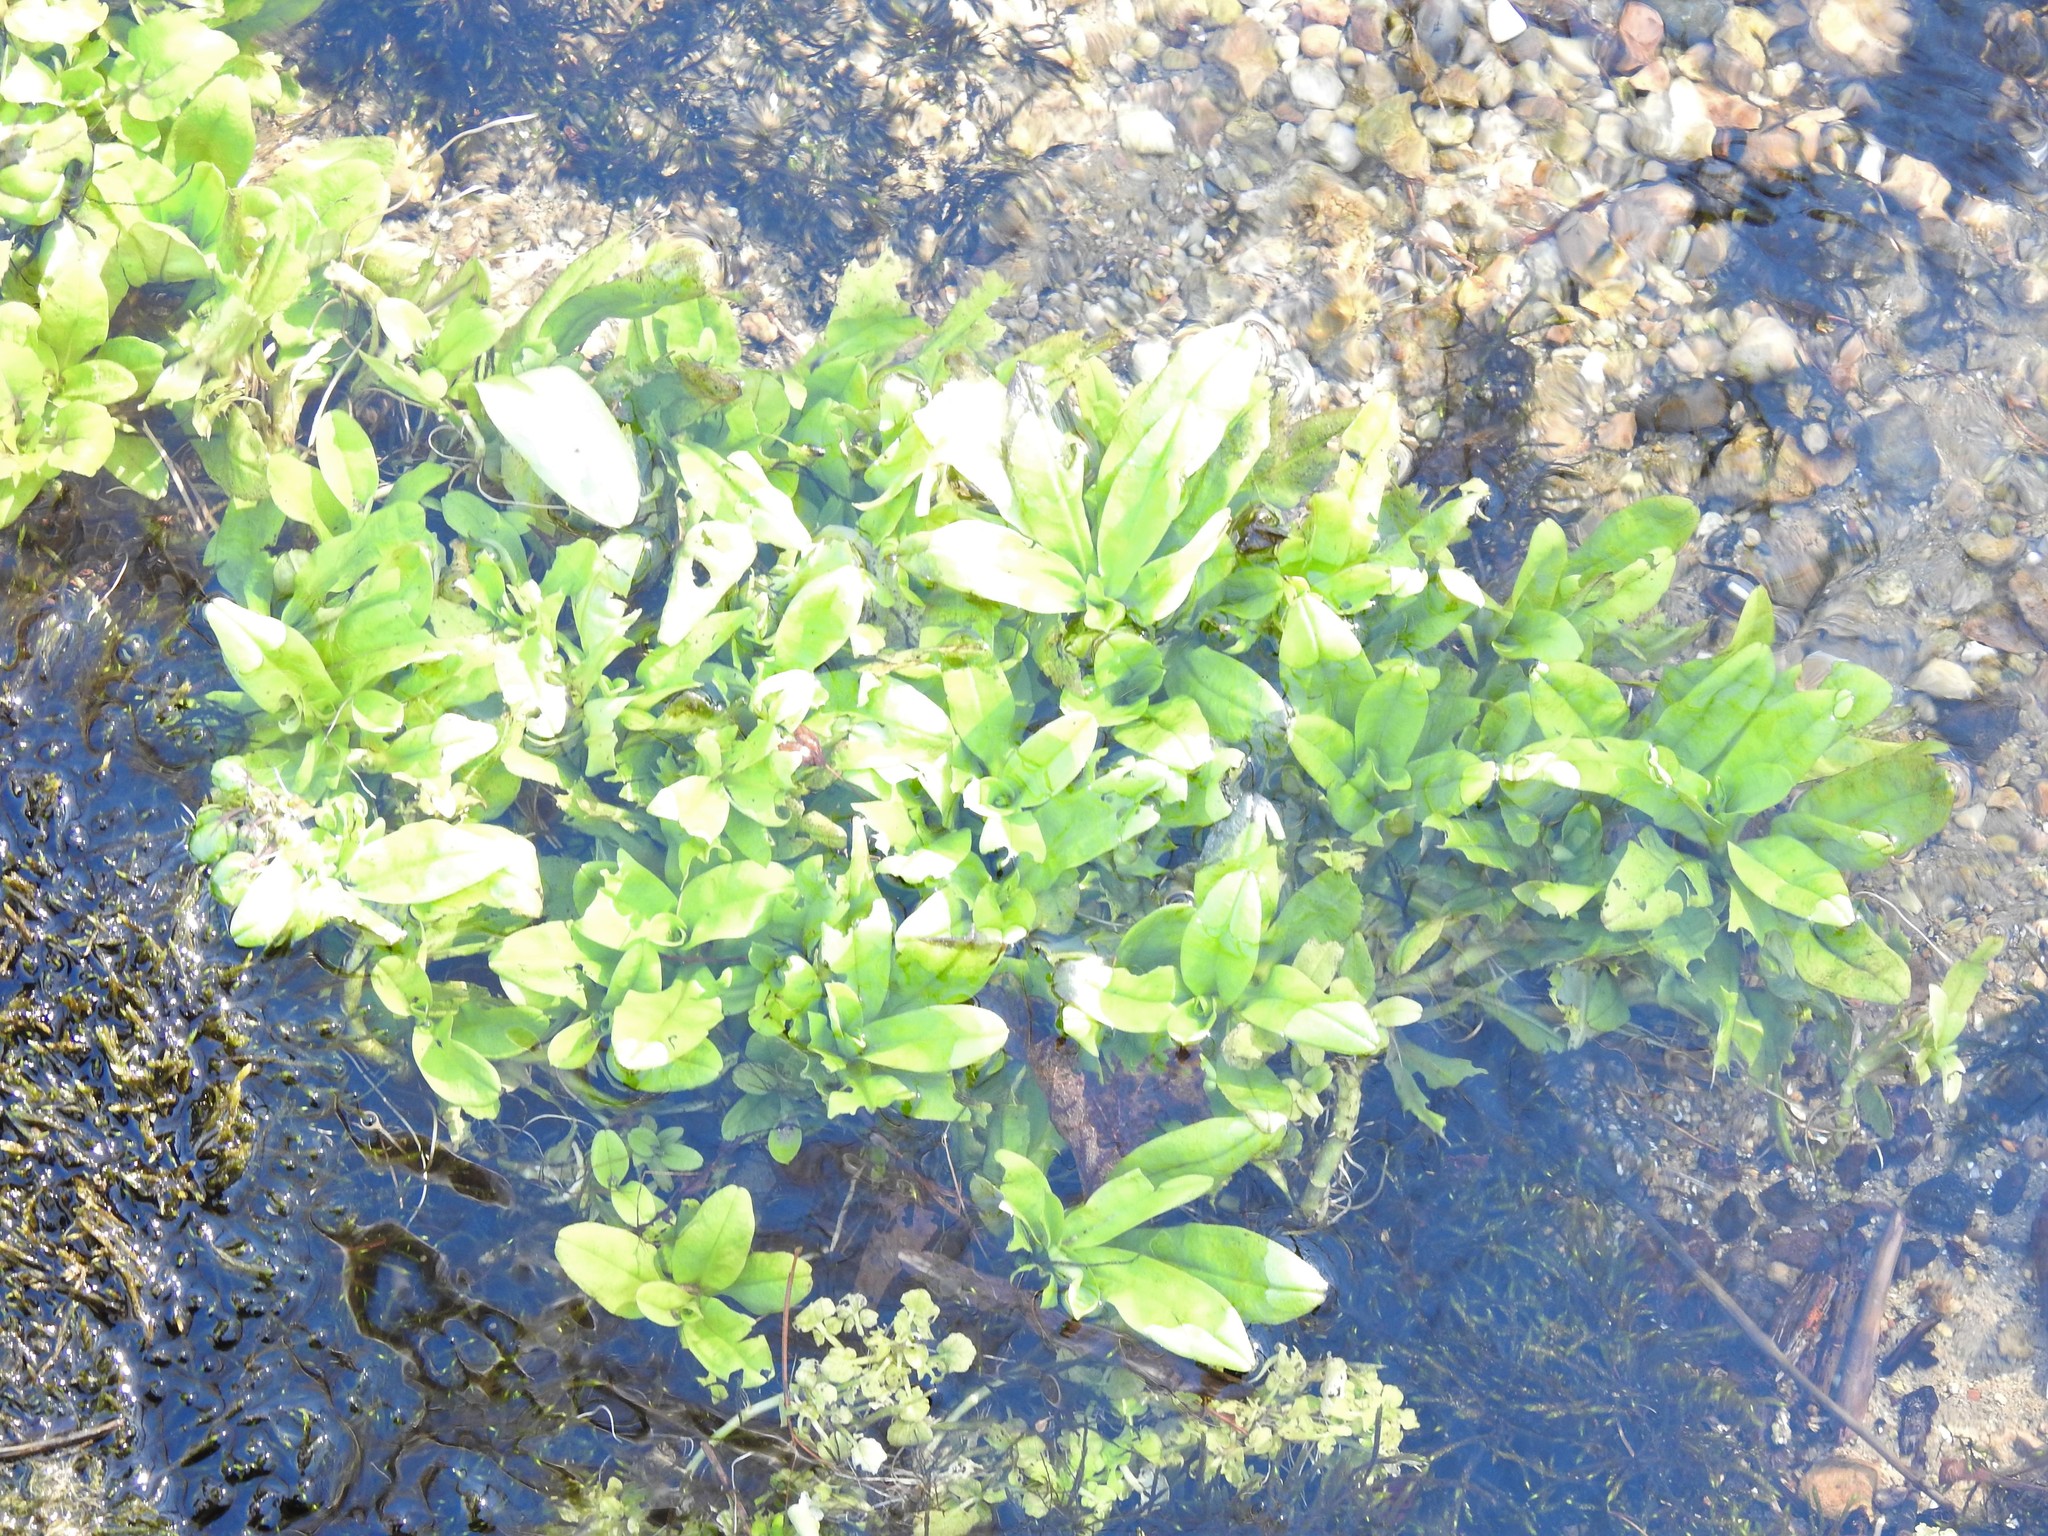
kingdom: Plantae
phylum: Tracheophyta
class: Magnoliopsida
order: Brassicales
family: Brassicaceae
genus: Nasturtium
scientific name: Nasturtium officinale
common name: Watercress
